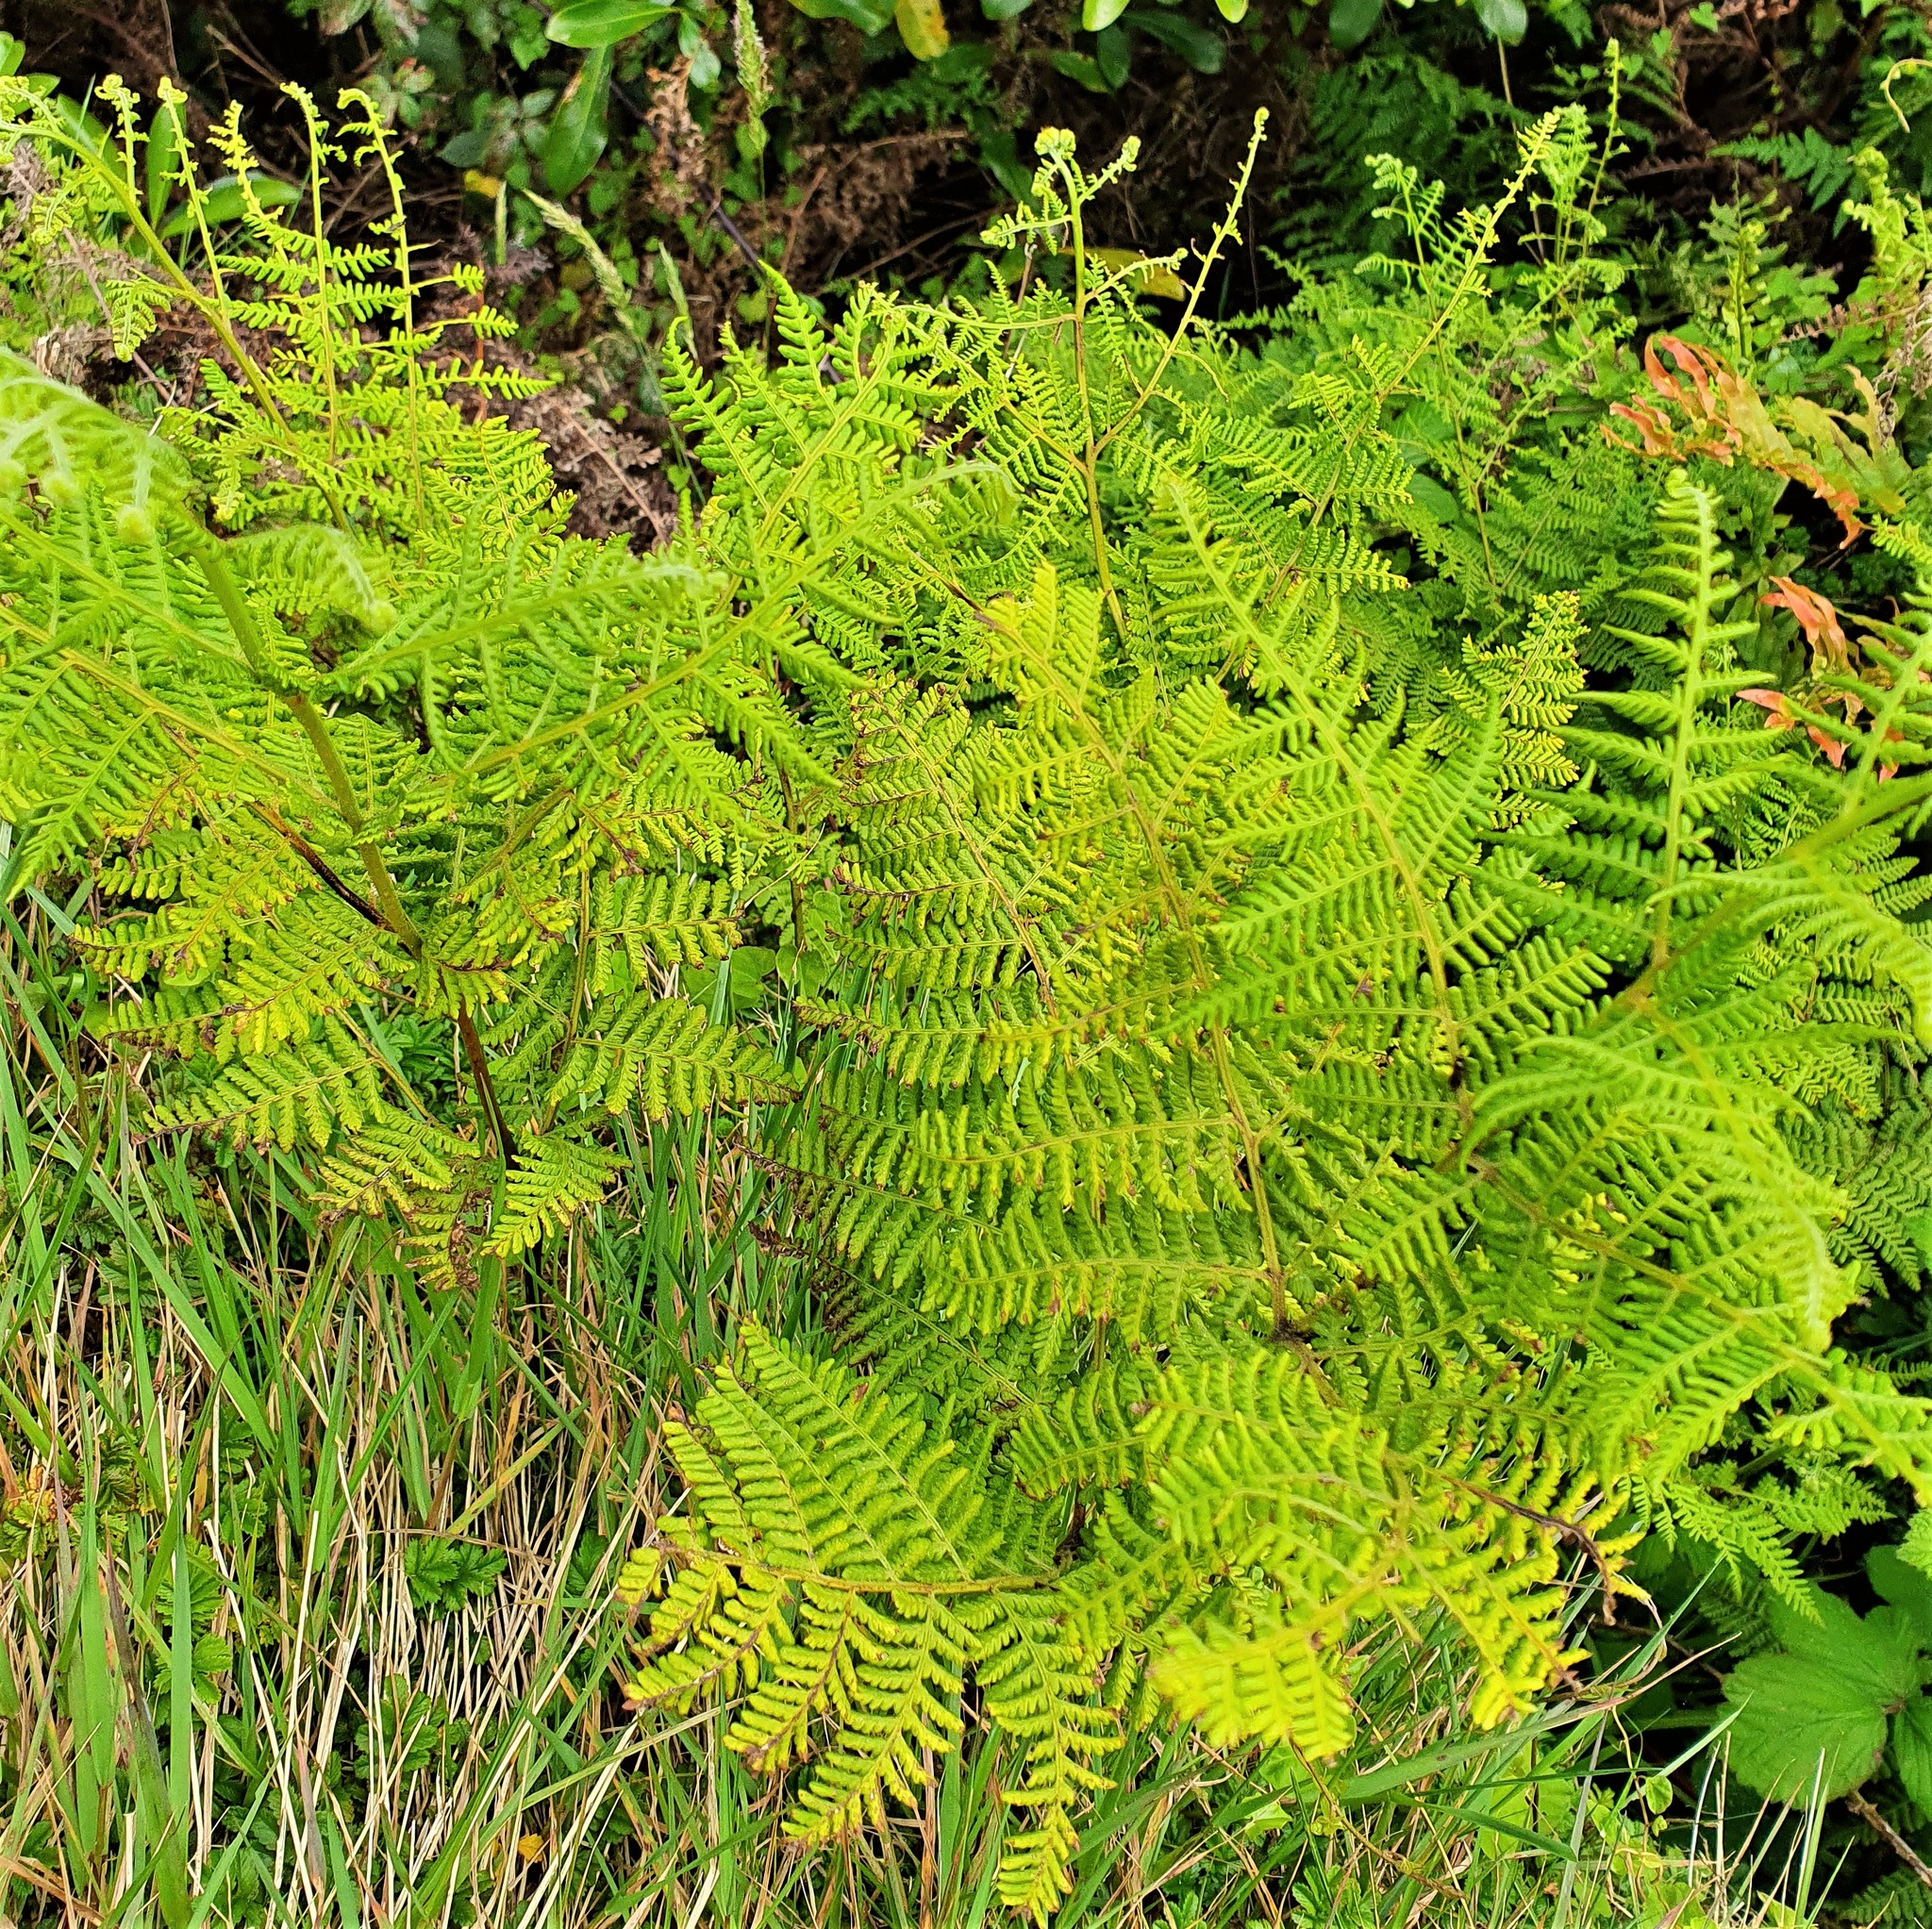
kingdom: Plantae
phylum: Tracheophyta
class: Polypodiopsida
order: Polypodiales
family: Dennstaedtiaceae
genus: Hypolepis
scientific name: Hypolepis ambigua
